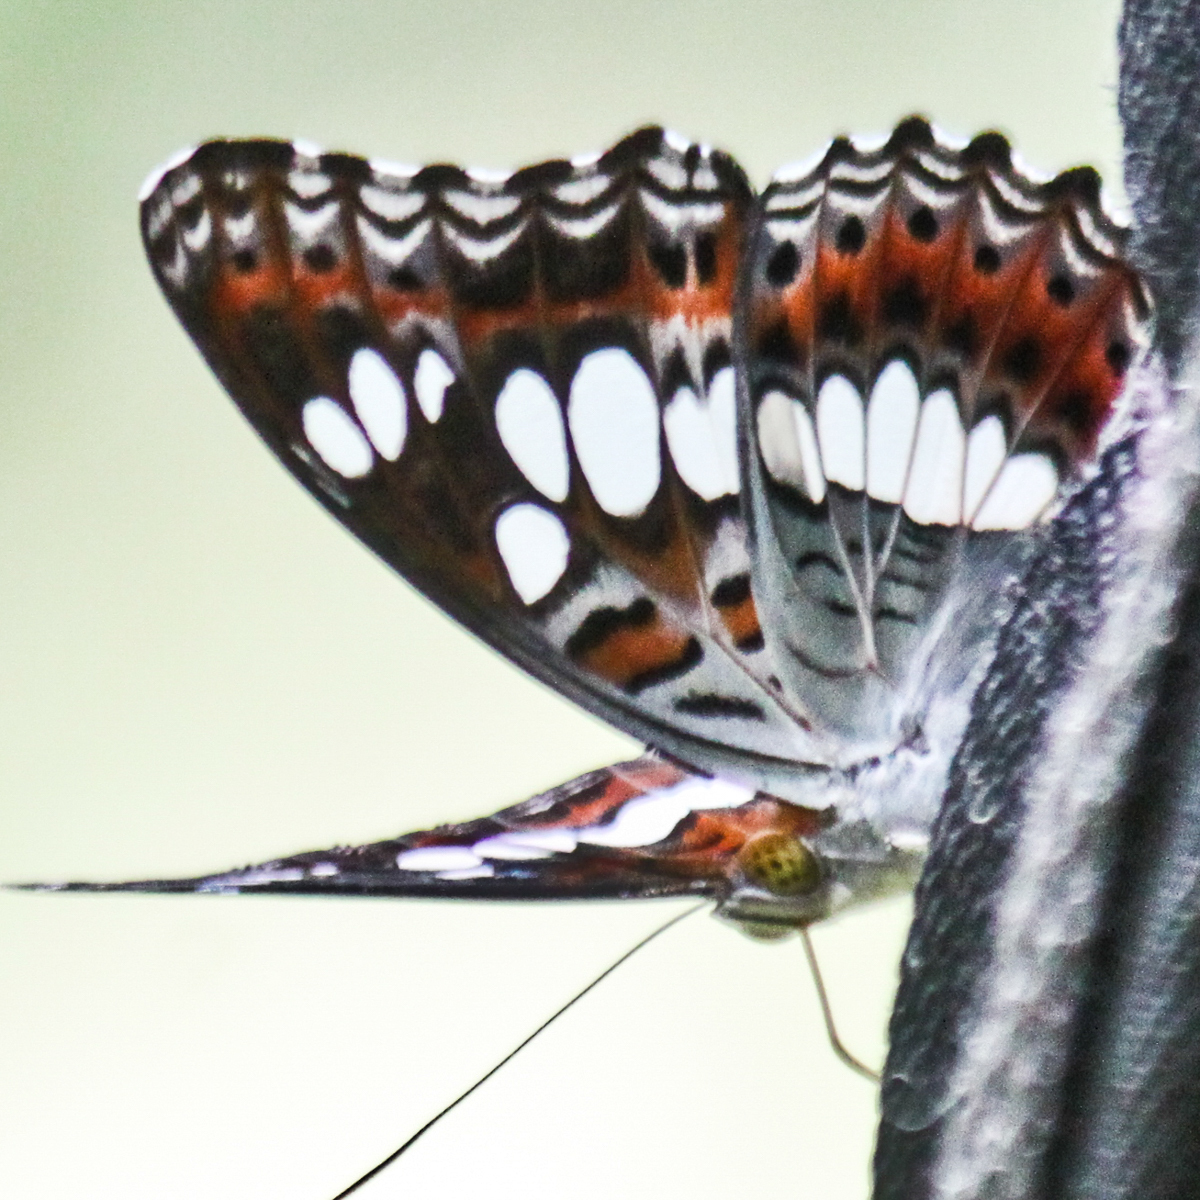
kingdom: Animalia
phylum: Arthropoda
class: Insecta
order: Lepidoptera
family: Nymphalidae
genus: Limenitis
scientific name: Limenitis Moduza procris
